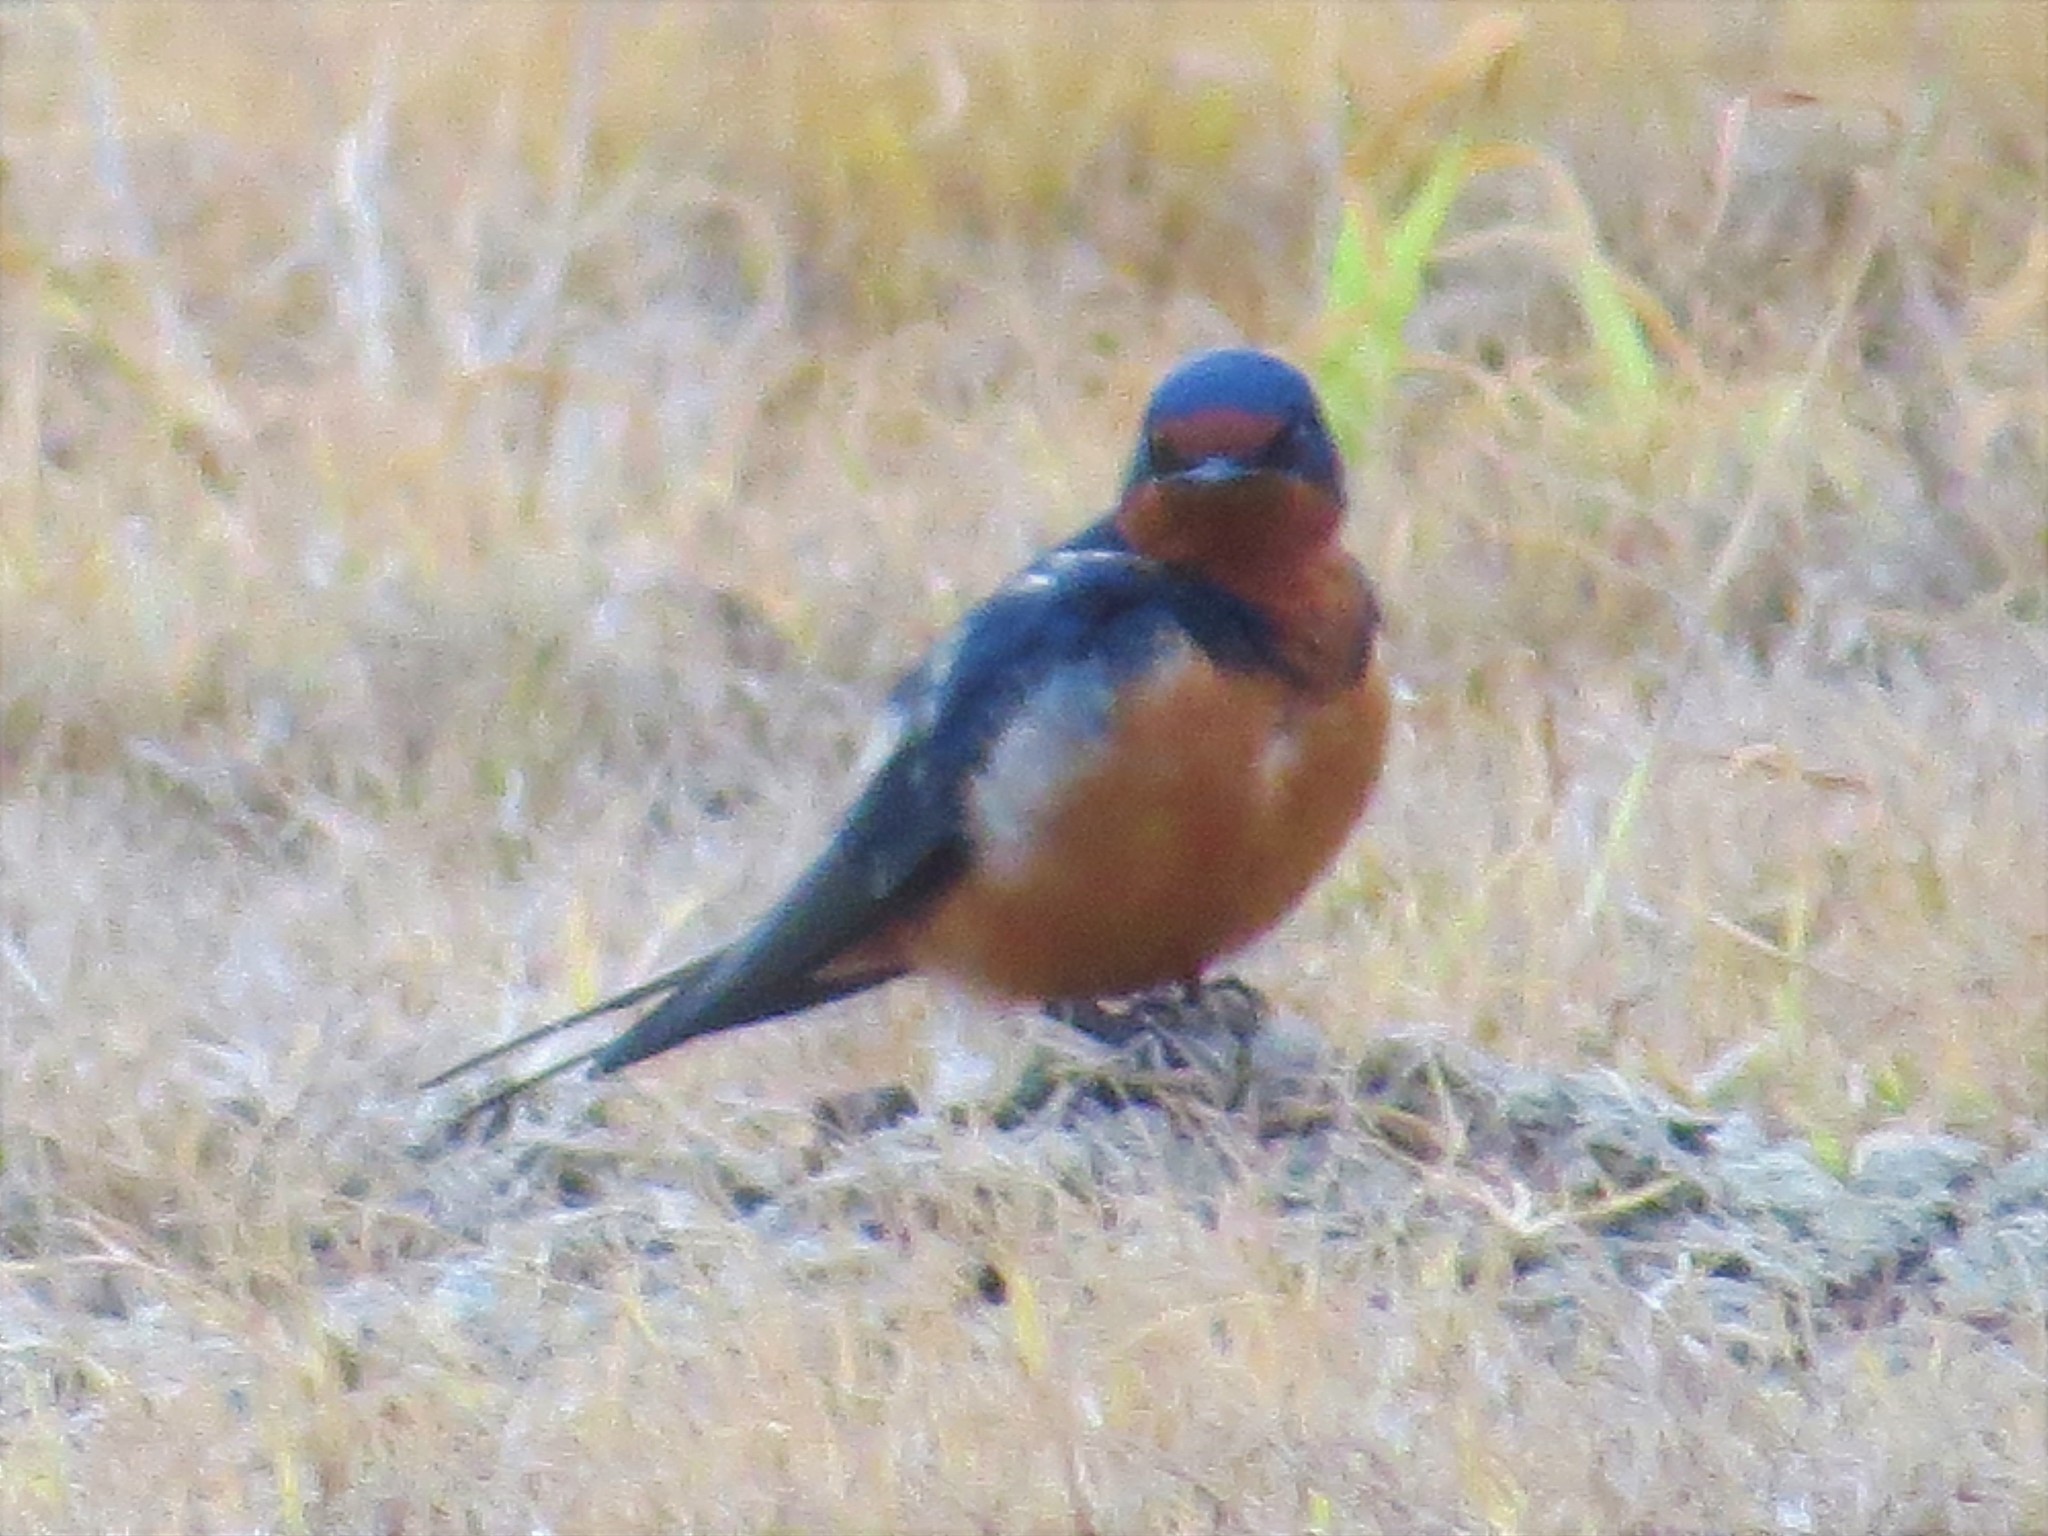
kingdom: Animalia
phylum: Chordata
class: Aves
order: Passeriformes
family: Hirundinidae
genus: Hirundo
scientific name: Hirundo rustica
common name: Barn swallow
